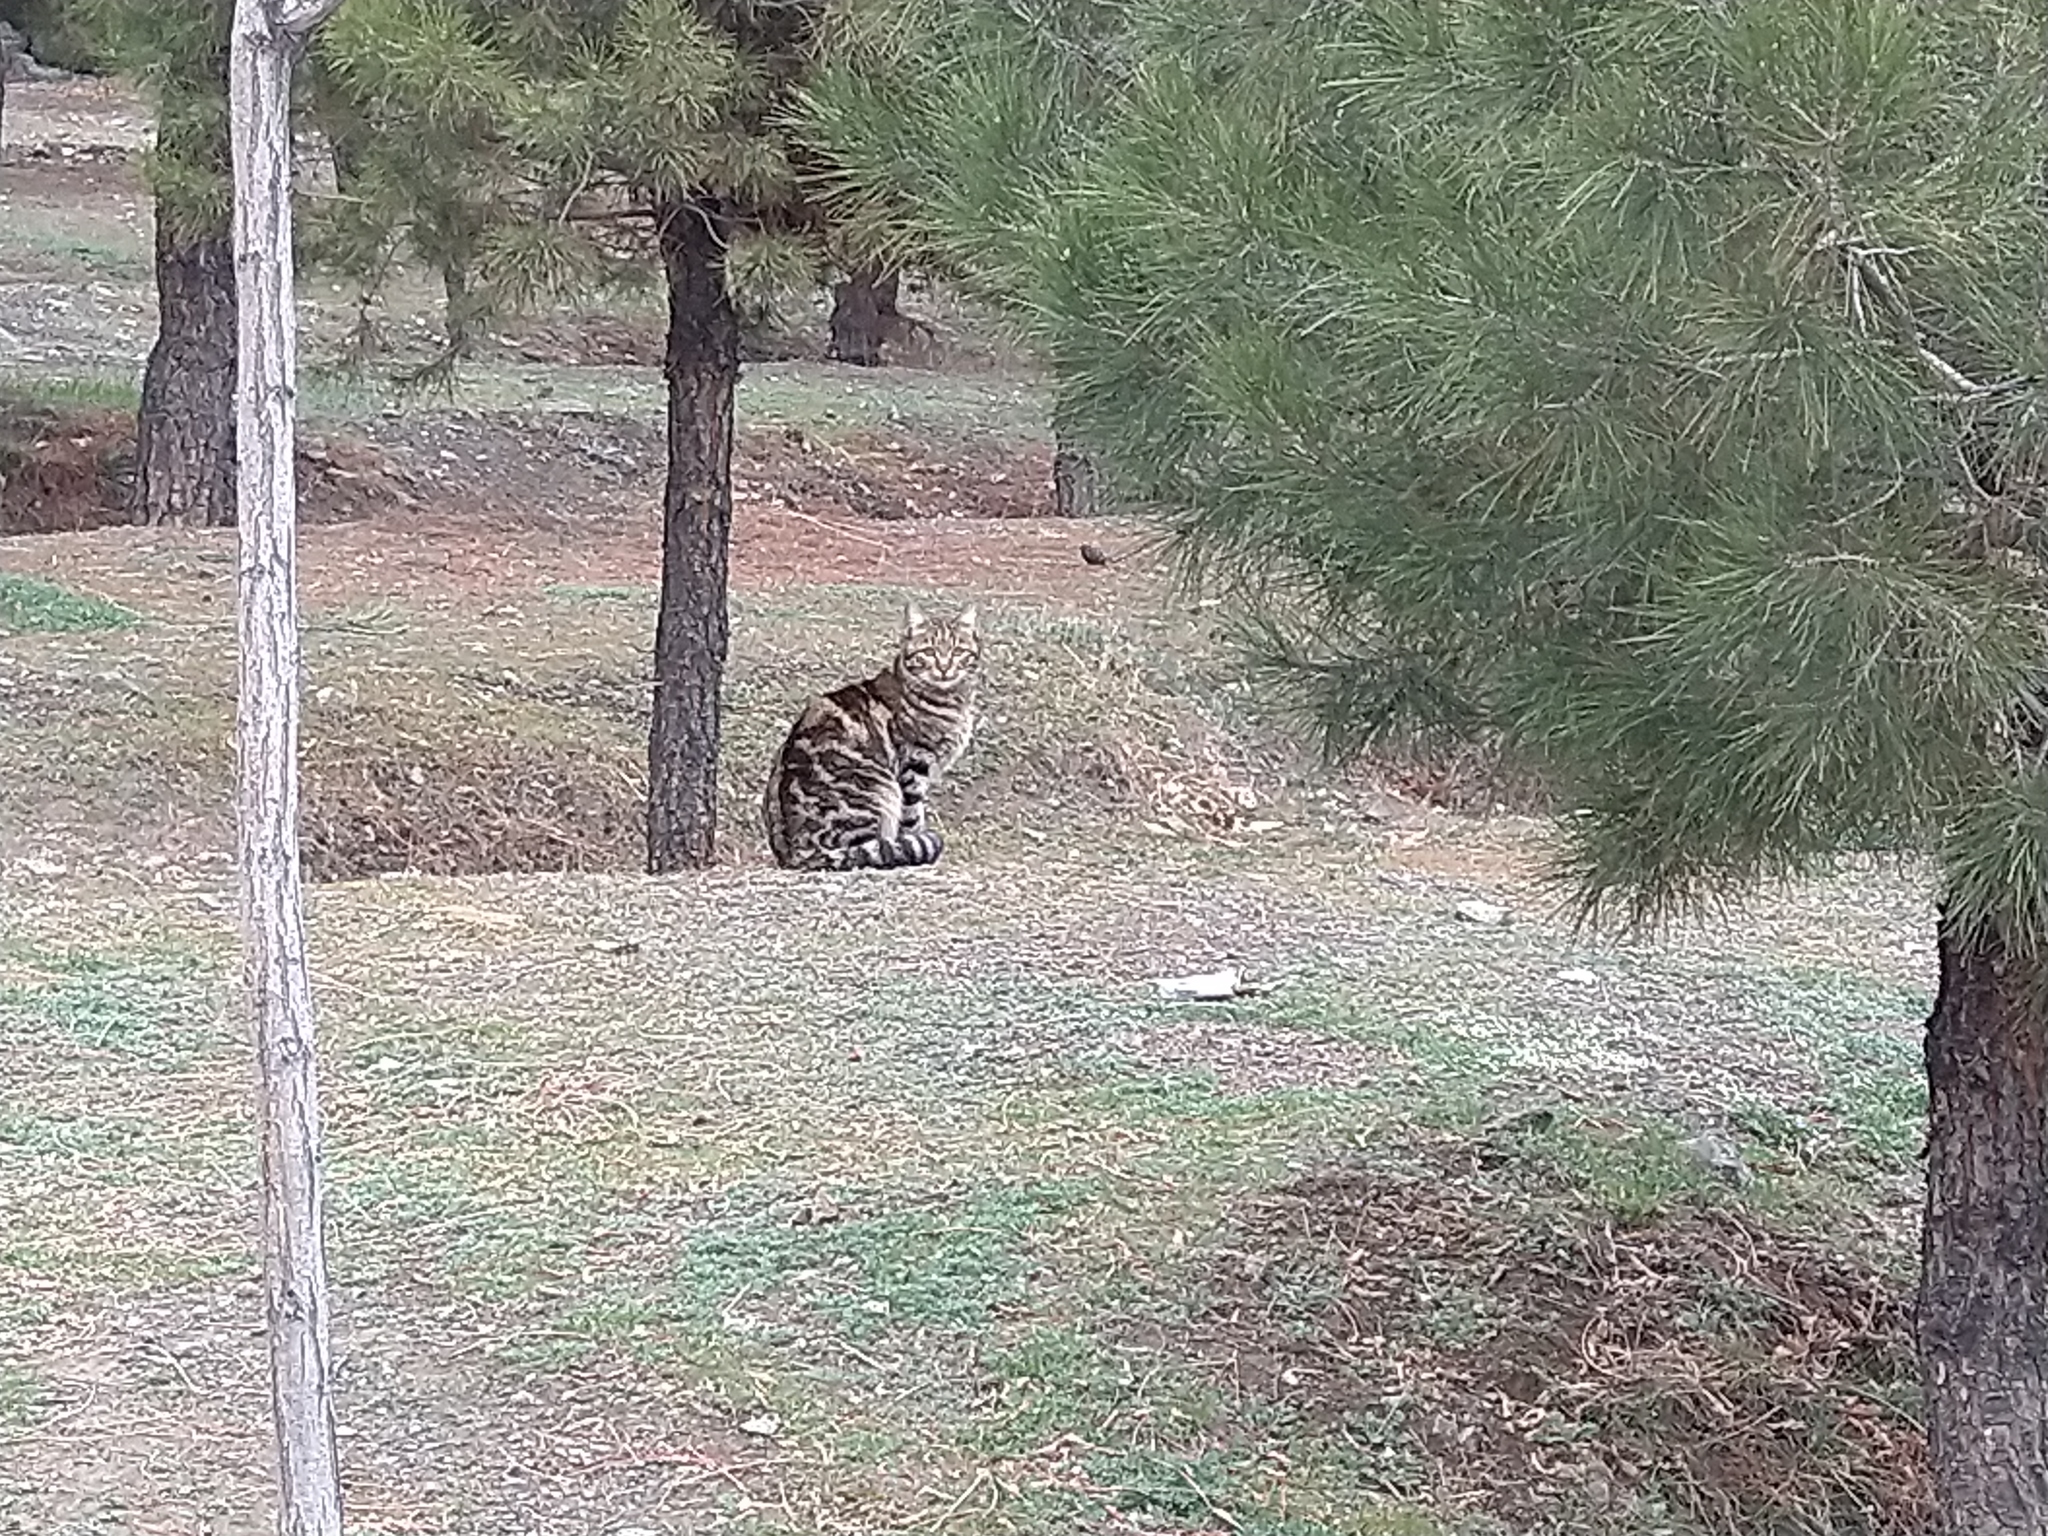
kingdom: Animalia
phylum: Chordata
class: Mammalia
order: Carnivora
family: Felidae
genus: Felis
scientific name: Felis catus
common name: Domestic cat
